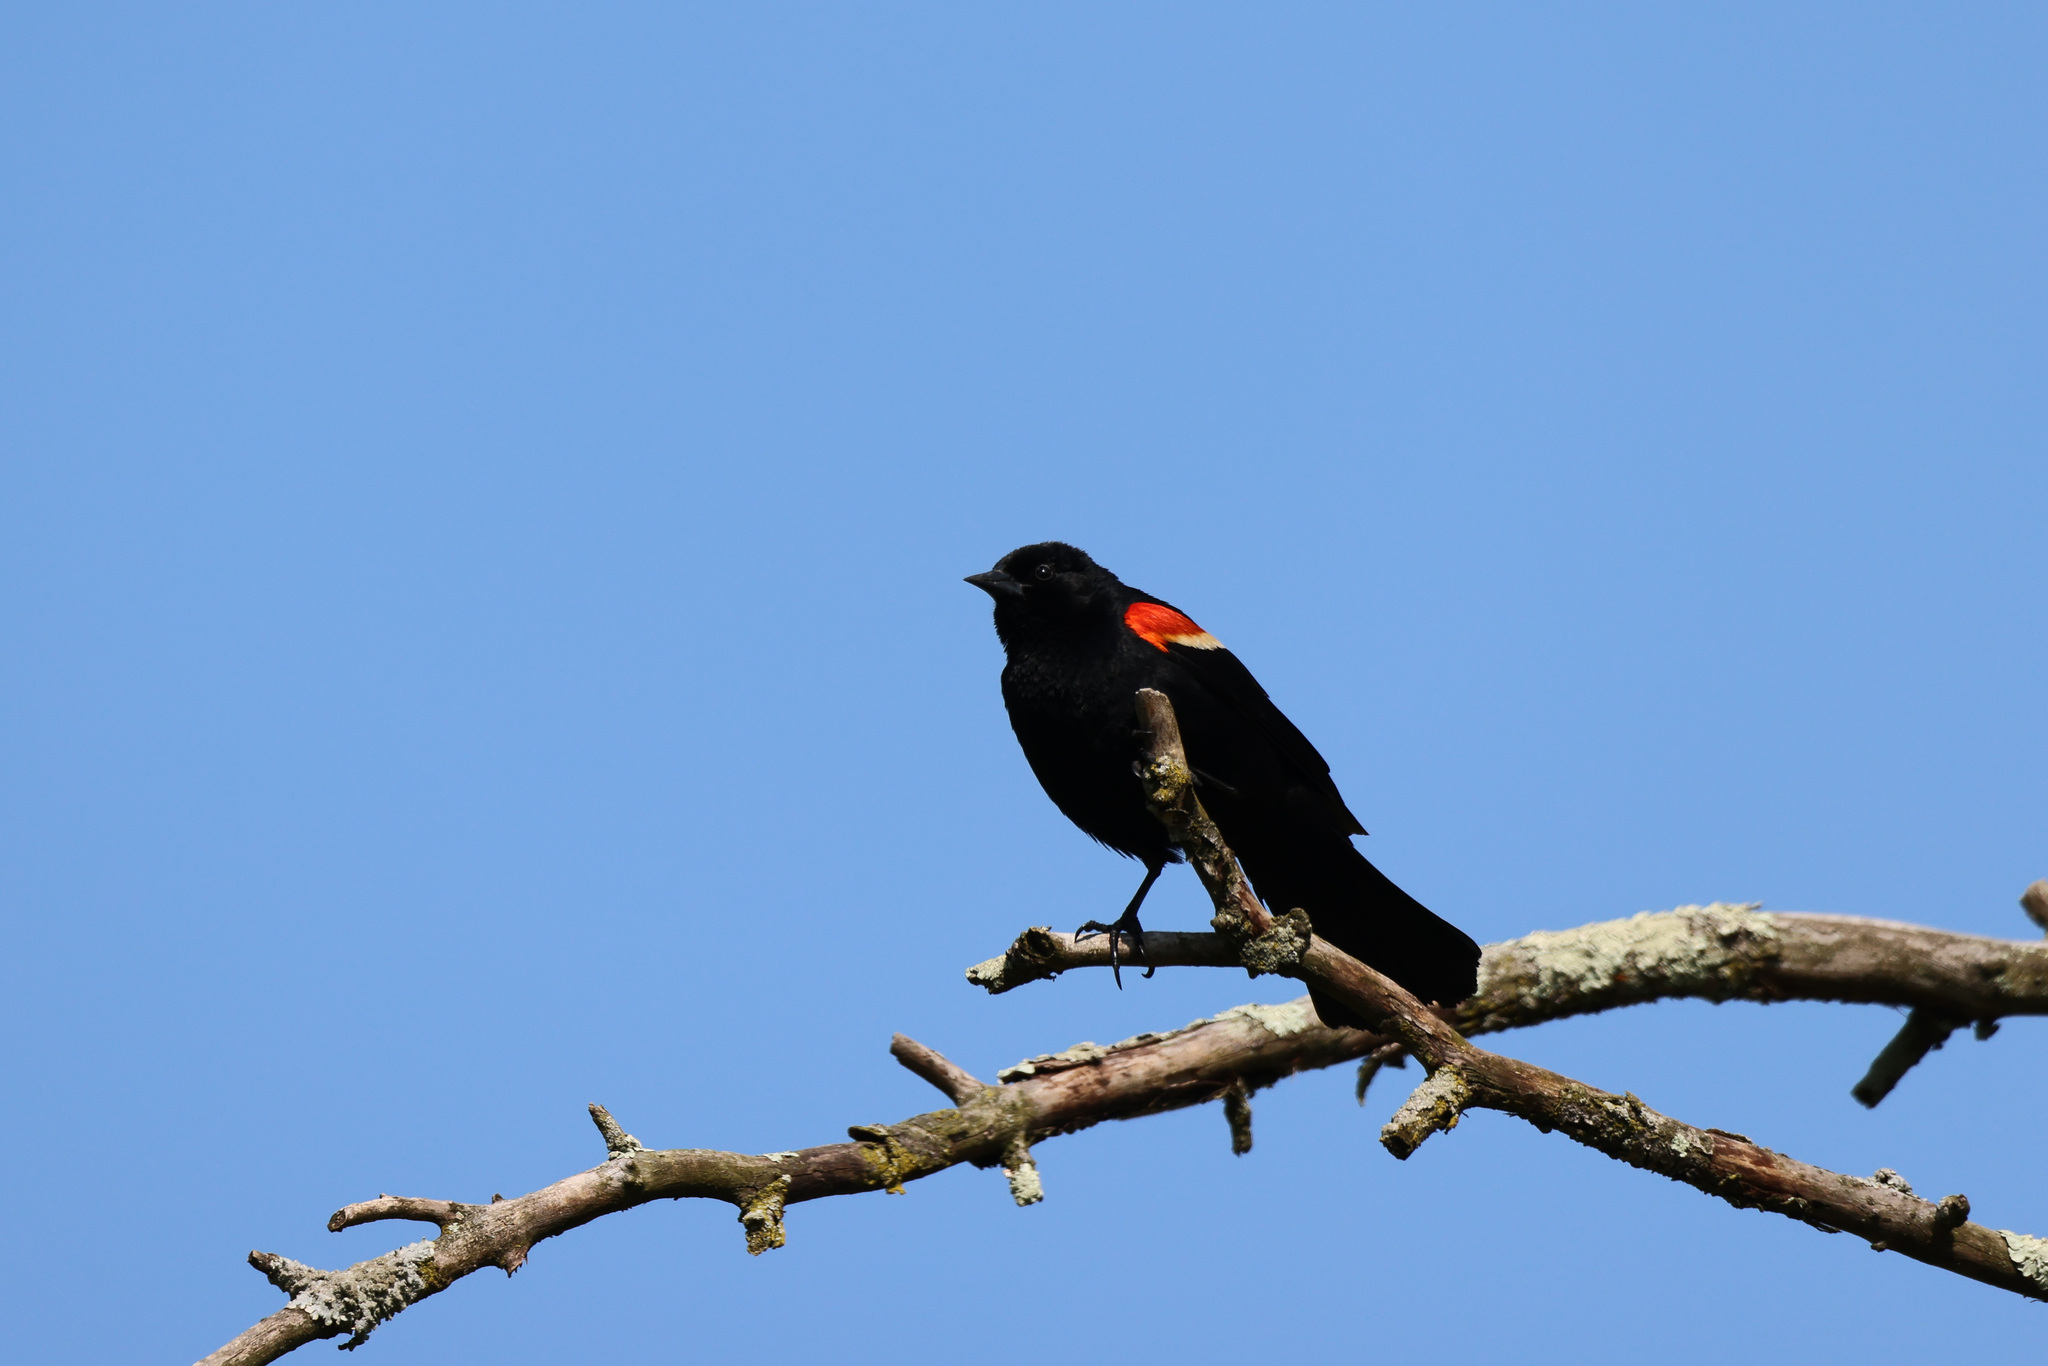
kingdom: Animalia
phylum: Chordata
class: Aves
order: Passeriformes
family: Icteridae
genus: Agelaius
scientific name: Agelaius phoeniceus
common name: Red-winged blackbird
